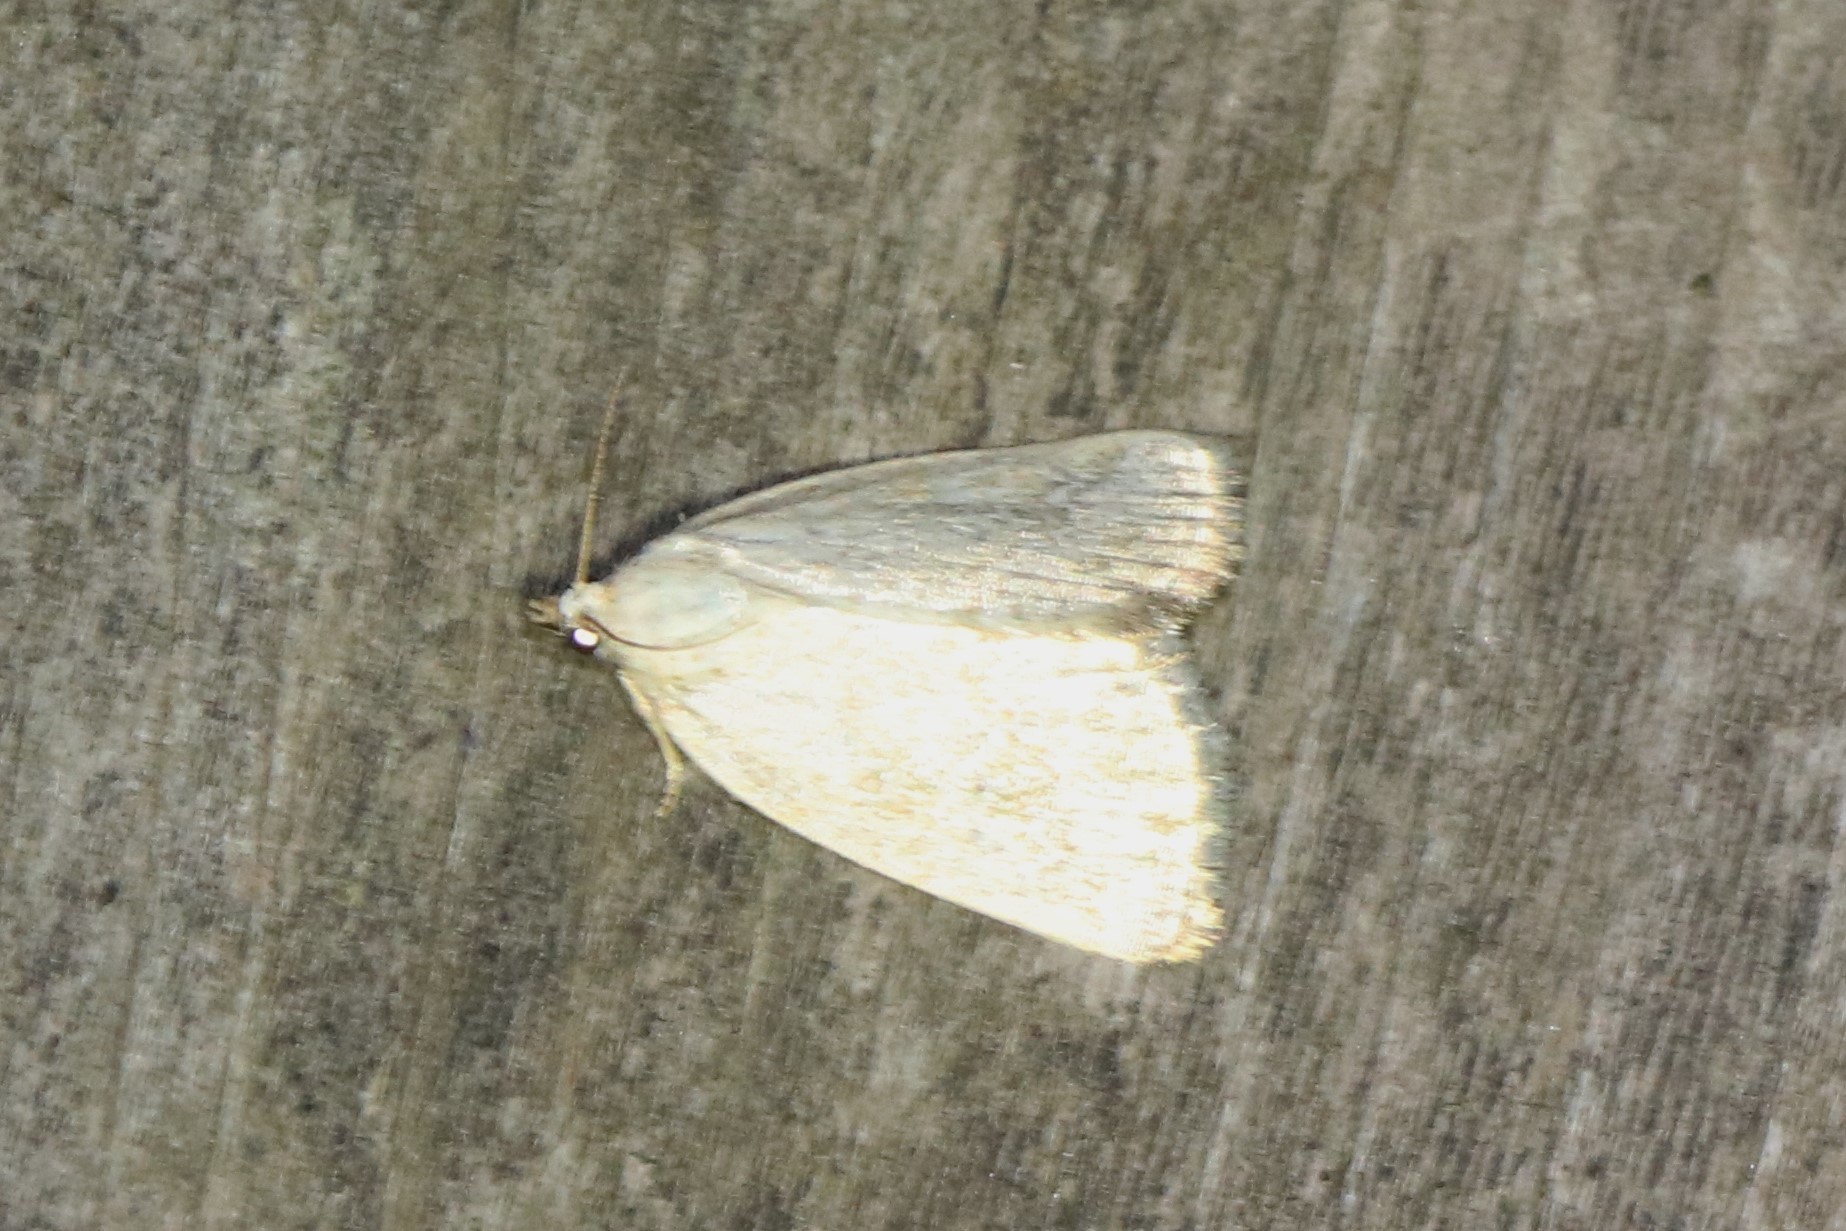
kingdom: Animalia
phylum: Arthropoda
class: Insecta
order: Lepidoptera
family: Noctuidae
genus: Protodeltote
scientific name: Protodeltote albidula
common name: Pale glyph
